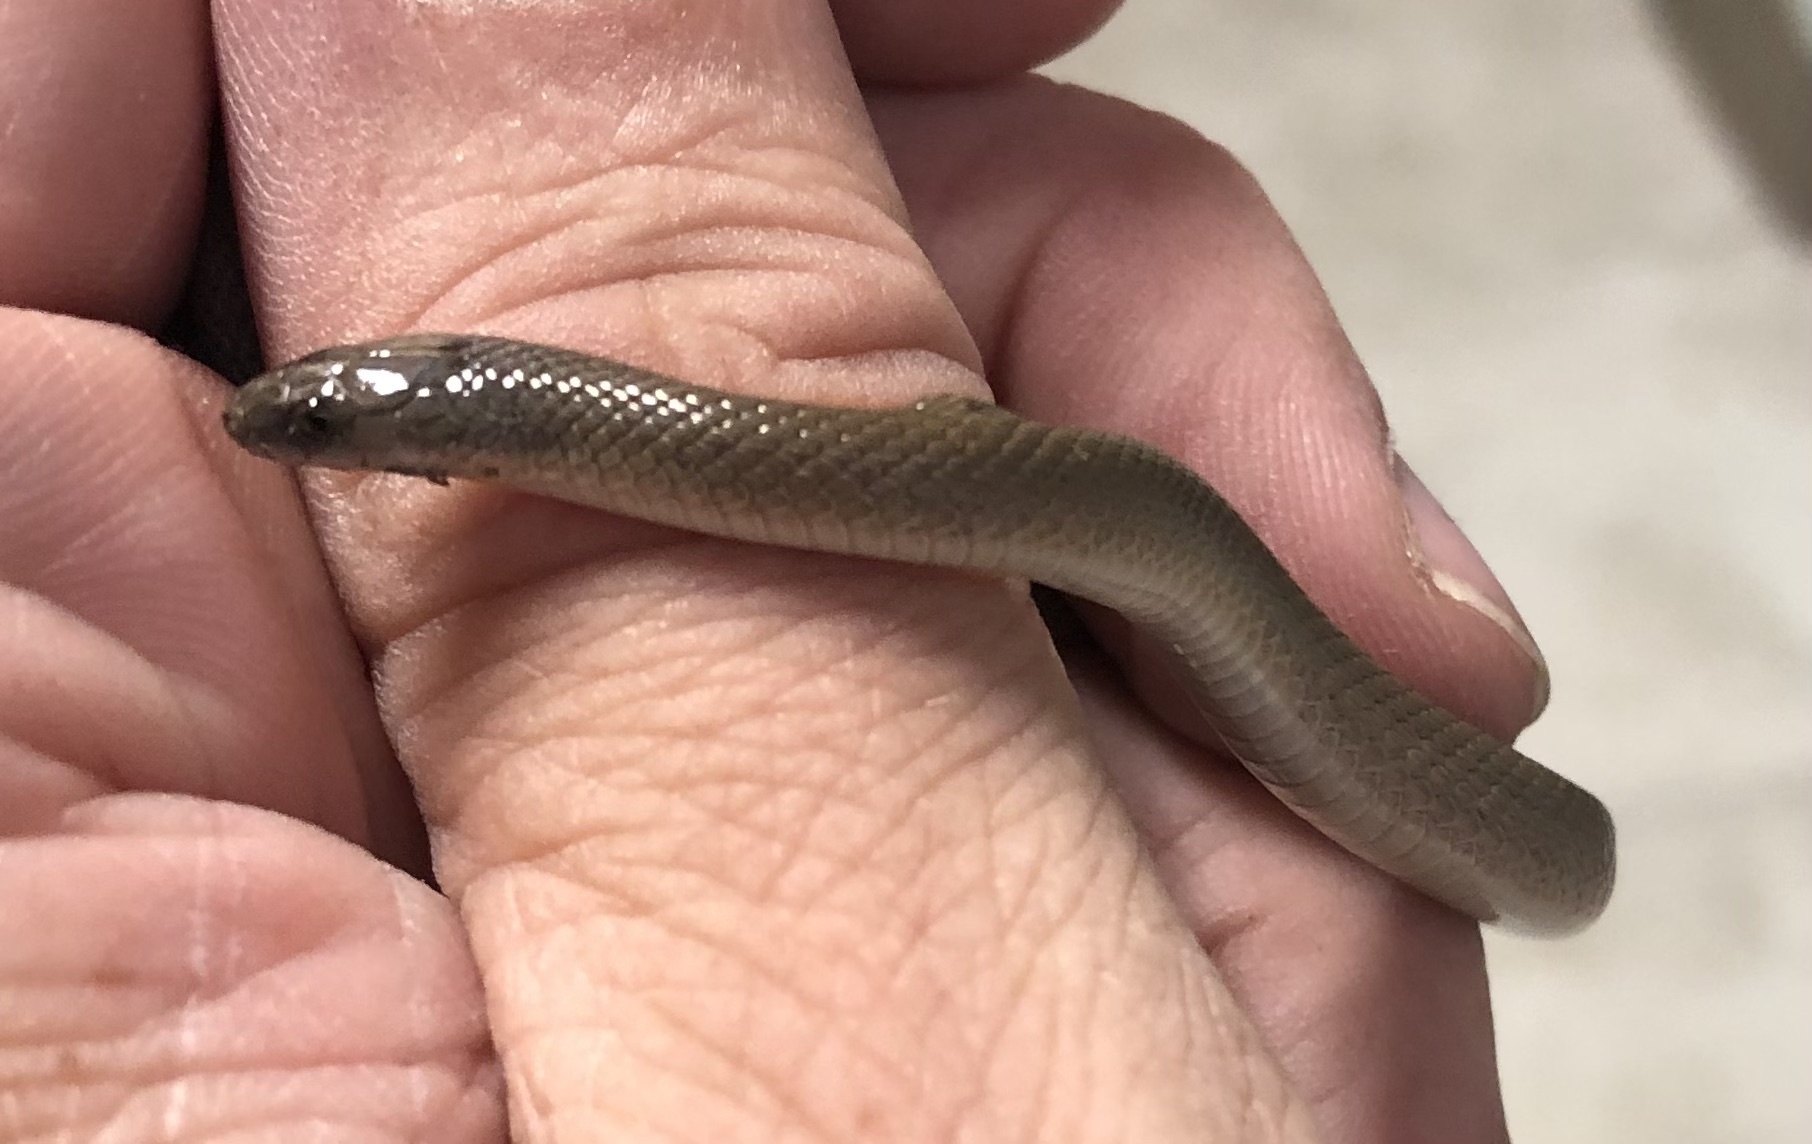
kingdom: Animalia
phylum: Chordata
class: Squamata
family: Colubridae
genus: Haldea
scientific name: Haldea striatula
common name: Rough earth snake
